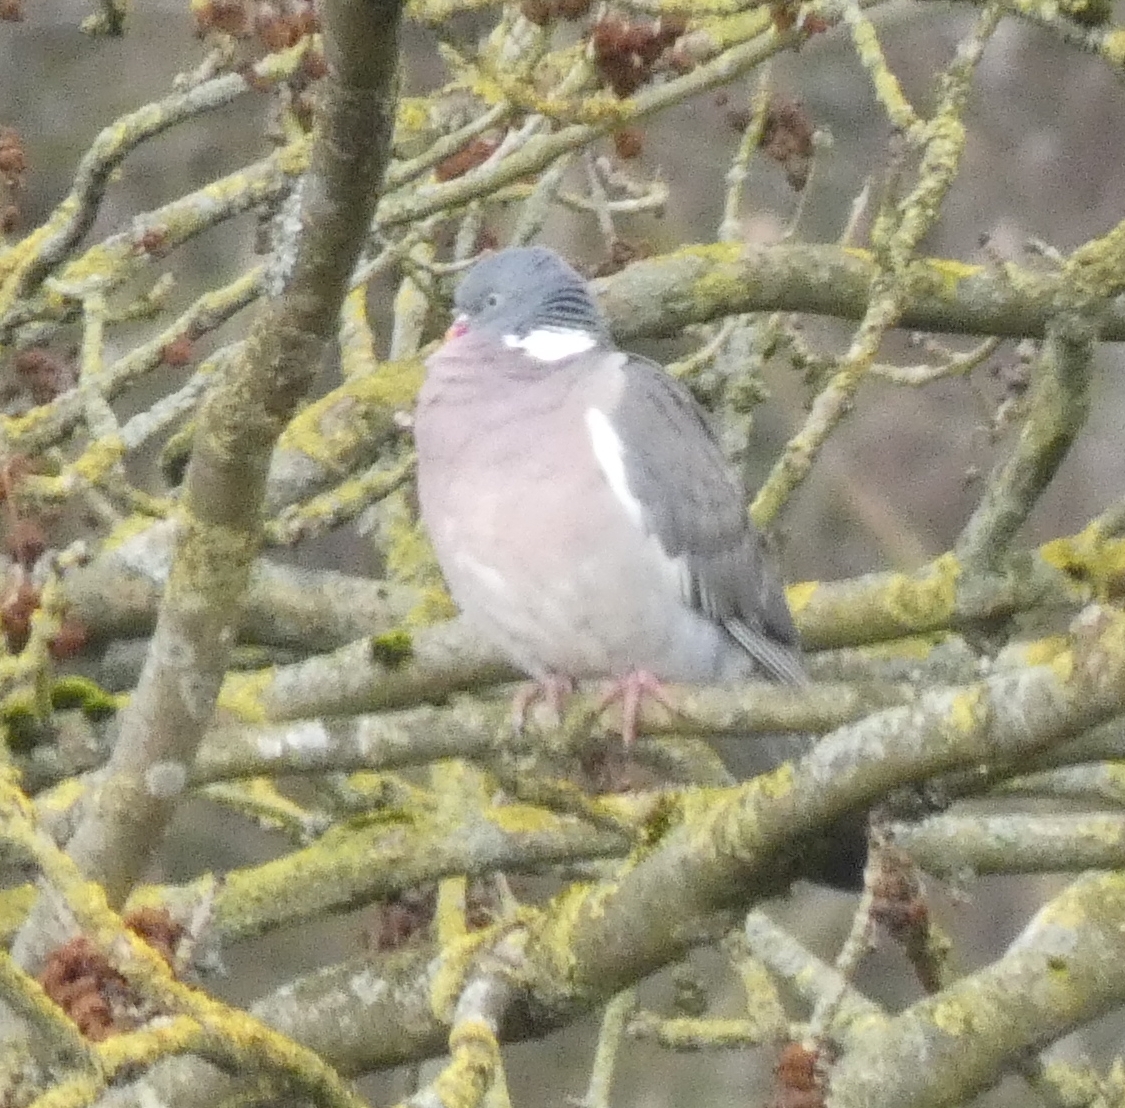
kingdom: Animalia
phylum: Chordata
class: Aves
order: Columbiformes
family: Columbidae
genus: Columba
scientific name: Columba palumbus
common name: Common wood pigeon
